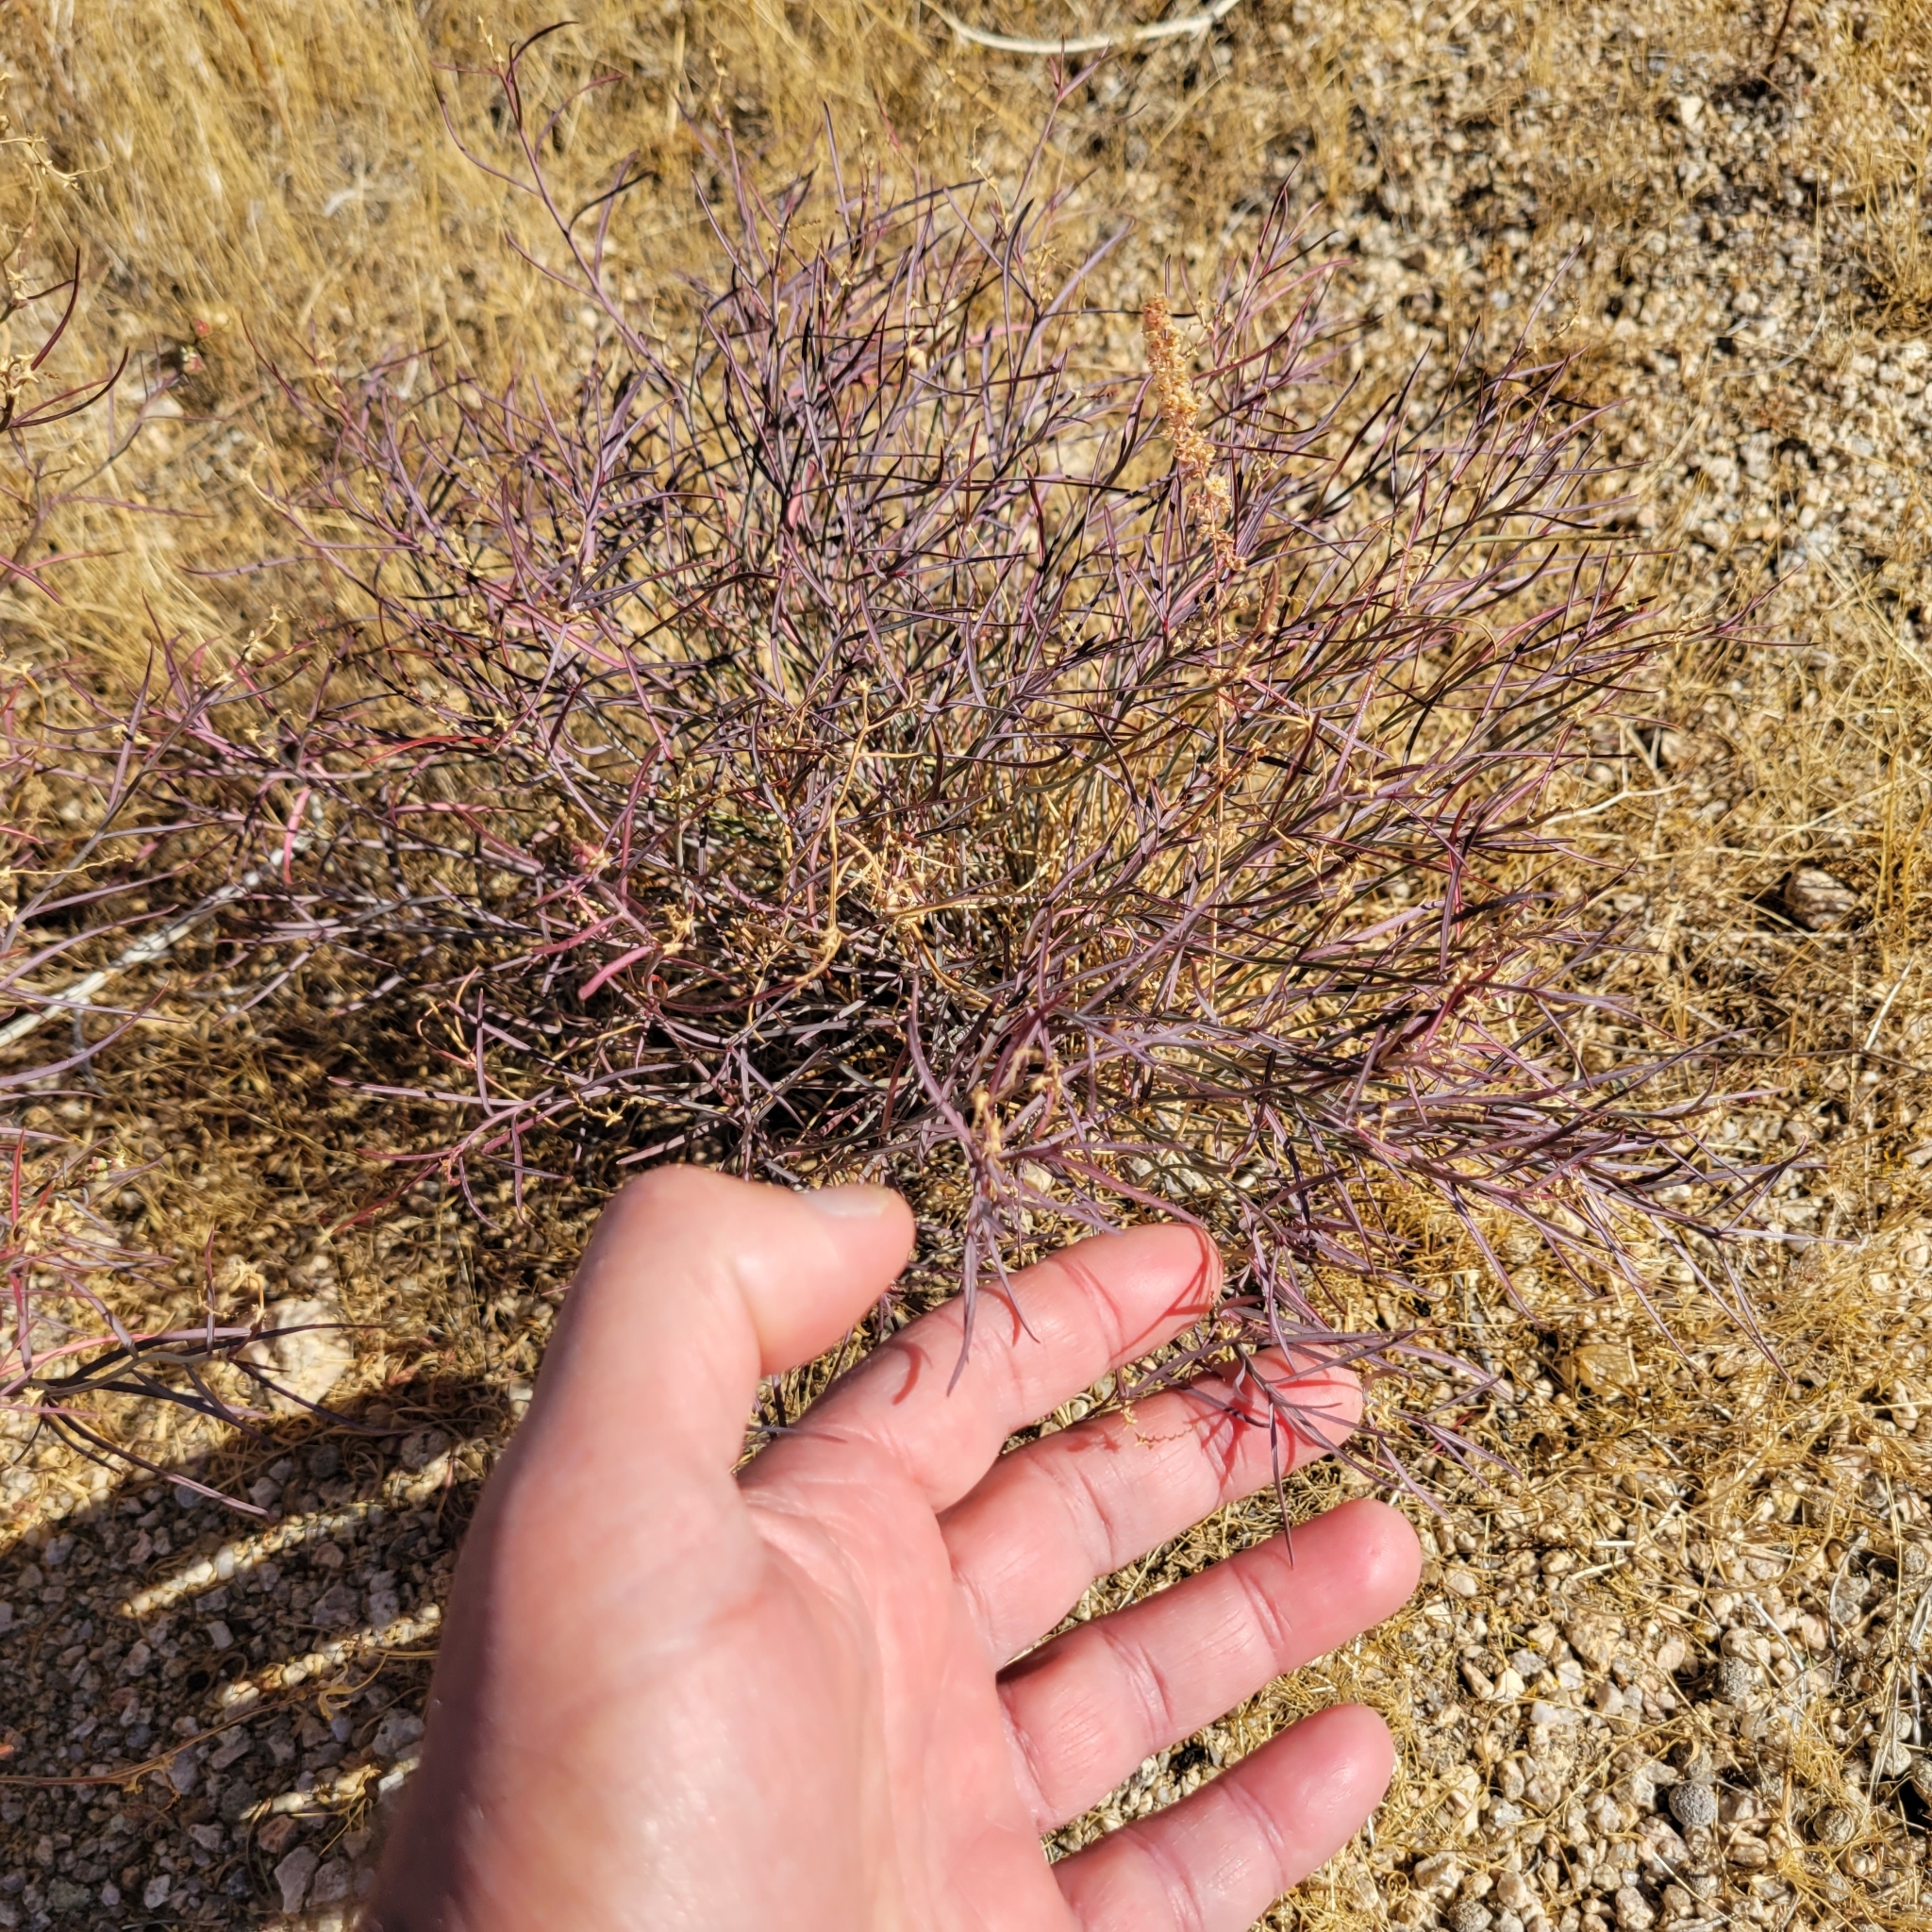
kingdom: Plantae
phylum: Tracheophyta
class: Magnoliopsida
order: Malpighiales
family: Euphorbiaceae
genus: Stillingia
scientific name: Stillingia linearifolia
